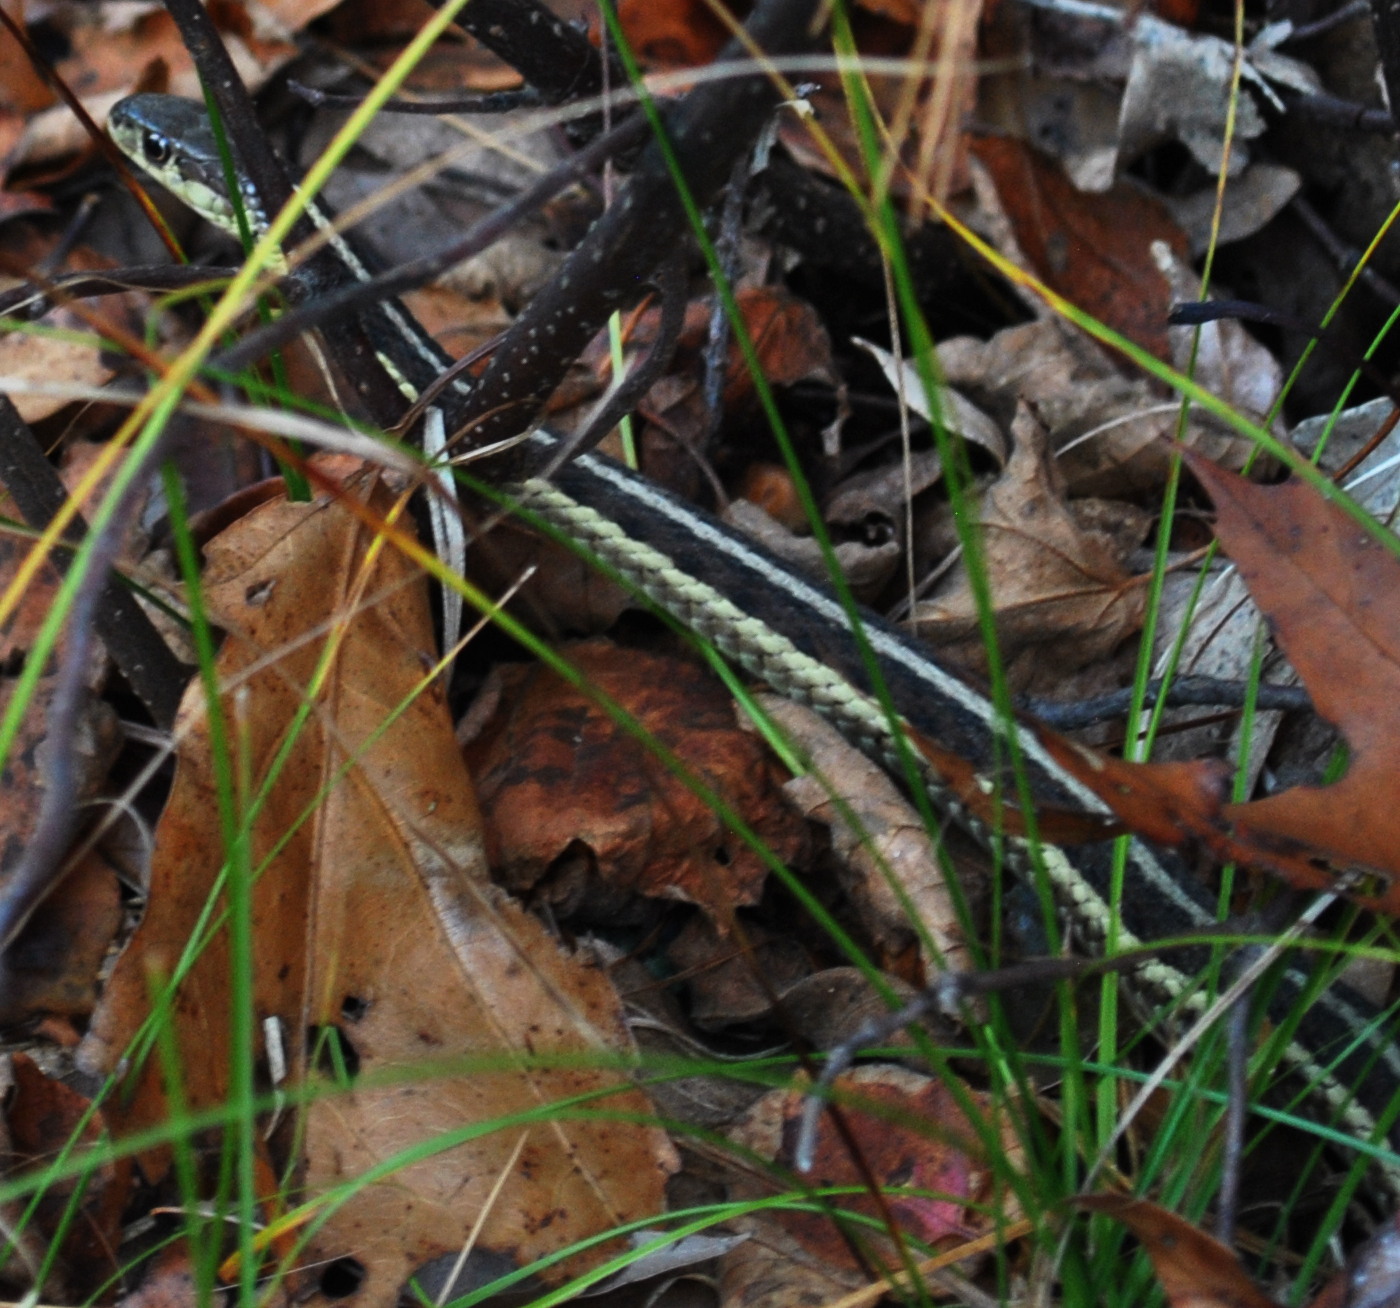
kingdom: Animalia
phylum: Chordata
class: Squamata
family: Colubridae
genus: Thamnophis
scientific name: Thamnophis sirtalis
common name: Common garter snake
